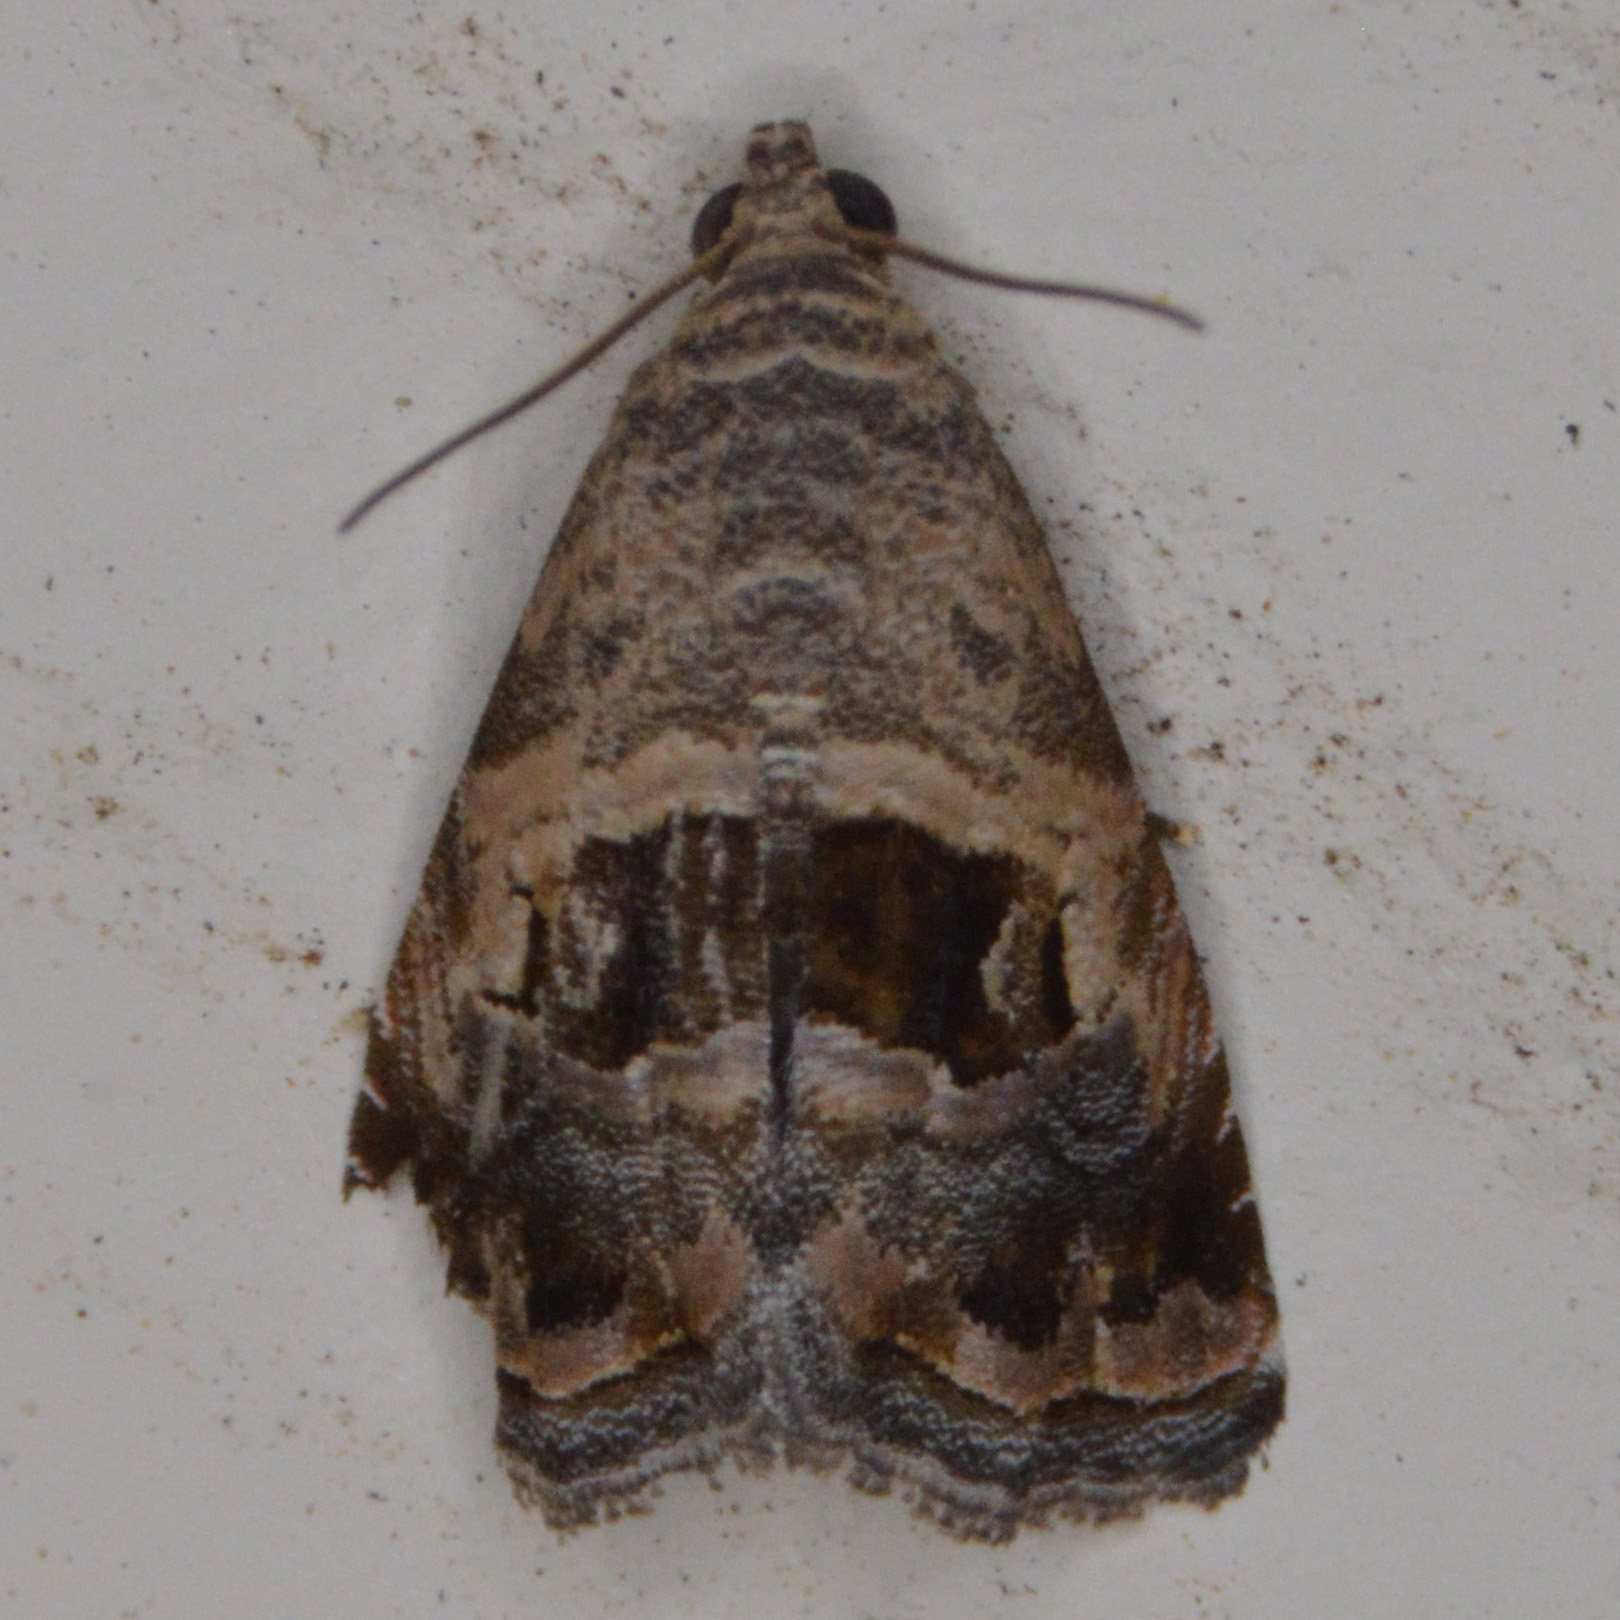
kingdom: Animalia
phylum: Arthropoda
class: Insecta
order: Lepidoptera
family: Noctuidae
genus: Tripudia
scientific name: Tripudia quadrifera
